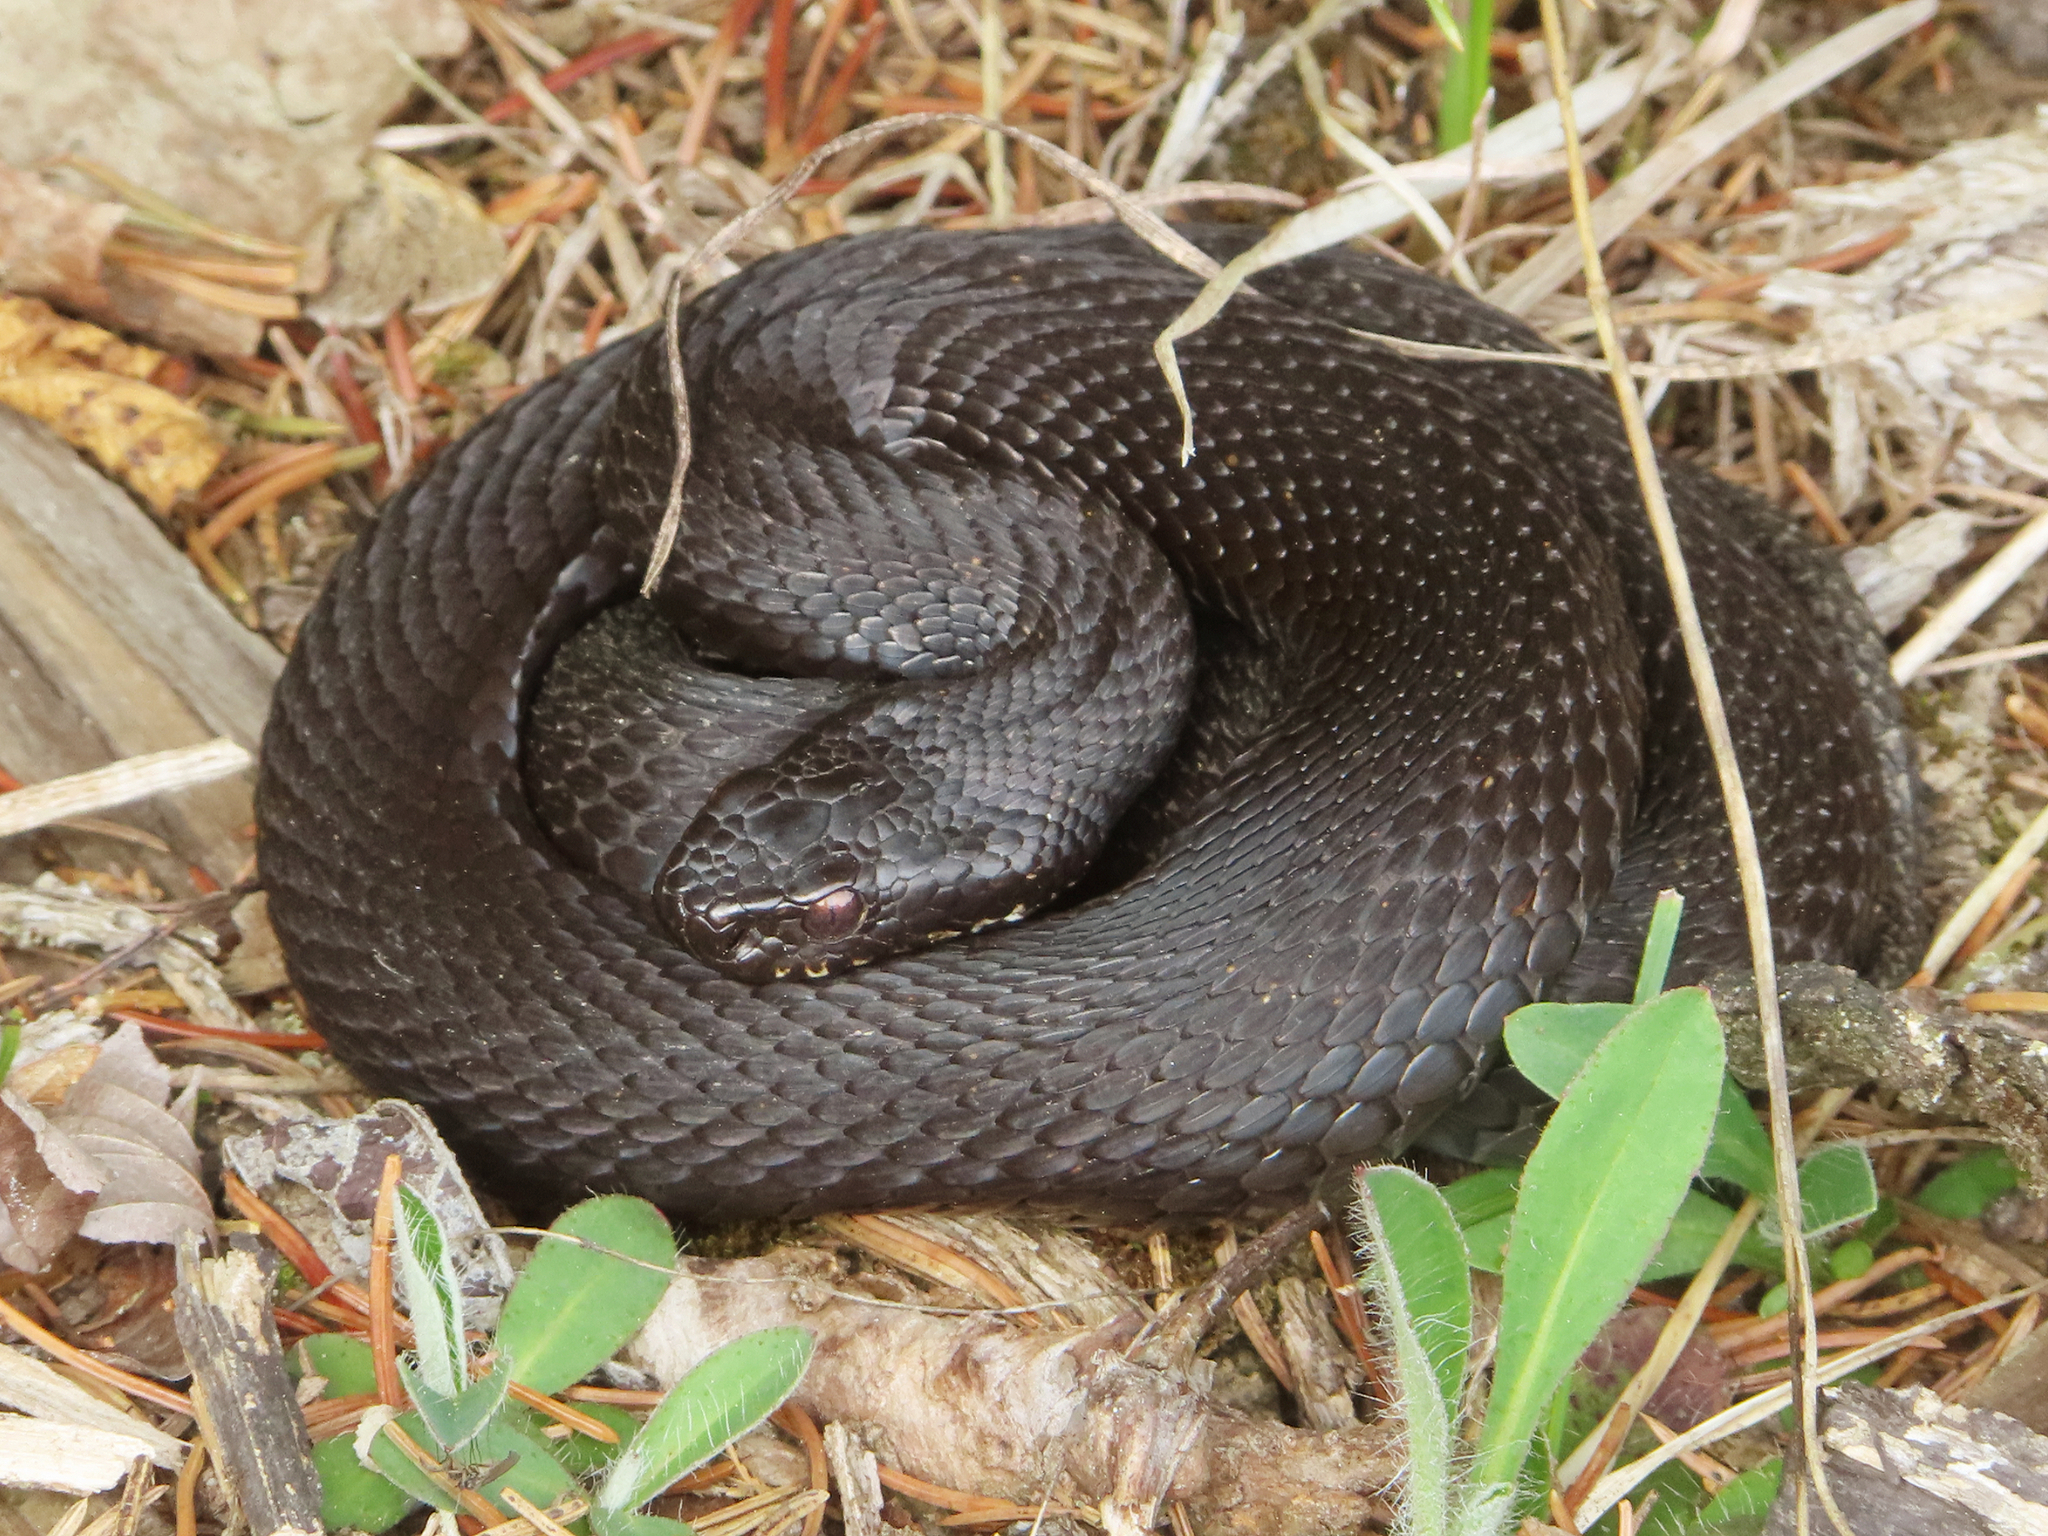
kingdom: Animalia
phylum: Chordata
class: Squamata
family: Viperidae
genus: Vipera
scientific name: Vipera berus
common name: Adder
